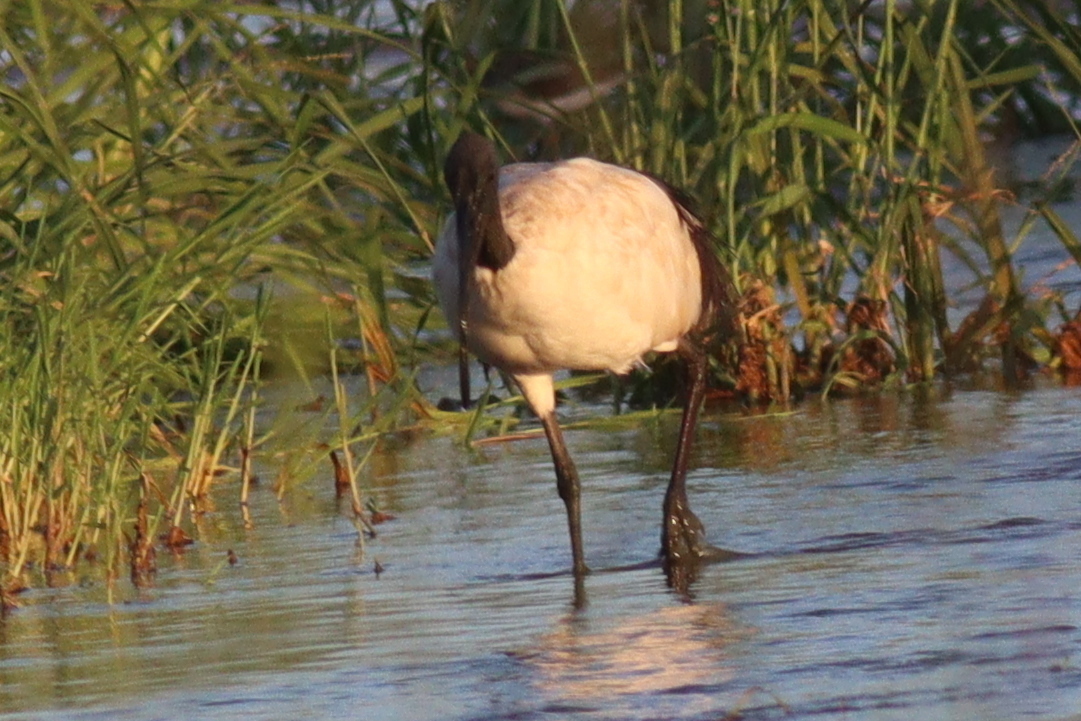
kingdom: Animalia
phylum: Chordata
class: Aves
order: Pelecaniformes
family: Threskiornithidae
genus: Threskiornis
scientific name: Threskiornis aethiopicus
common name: Sacred ibis
